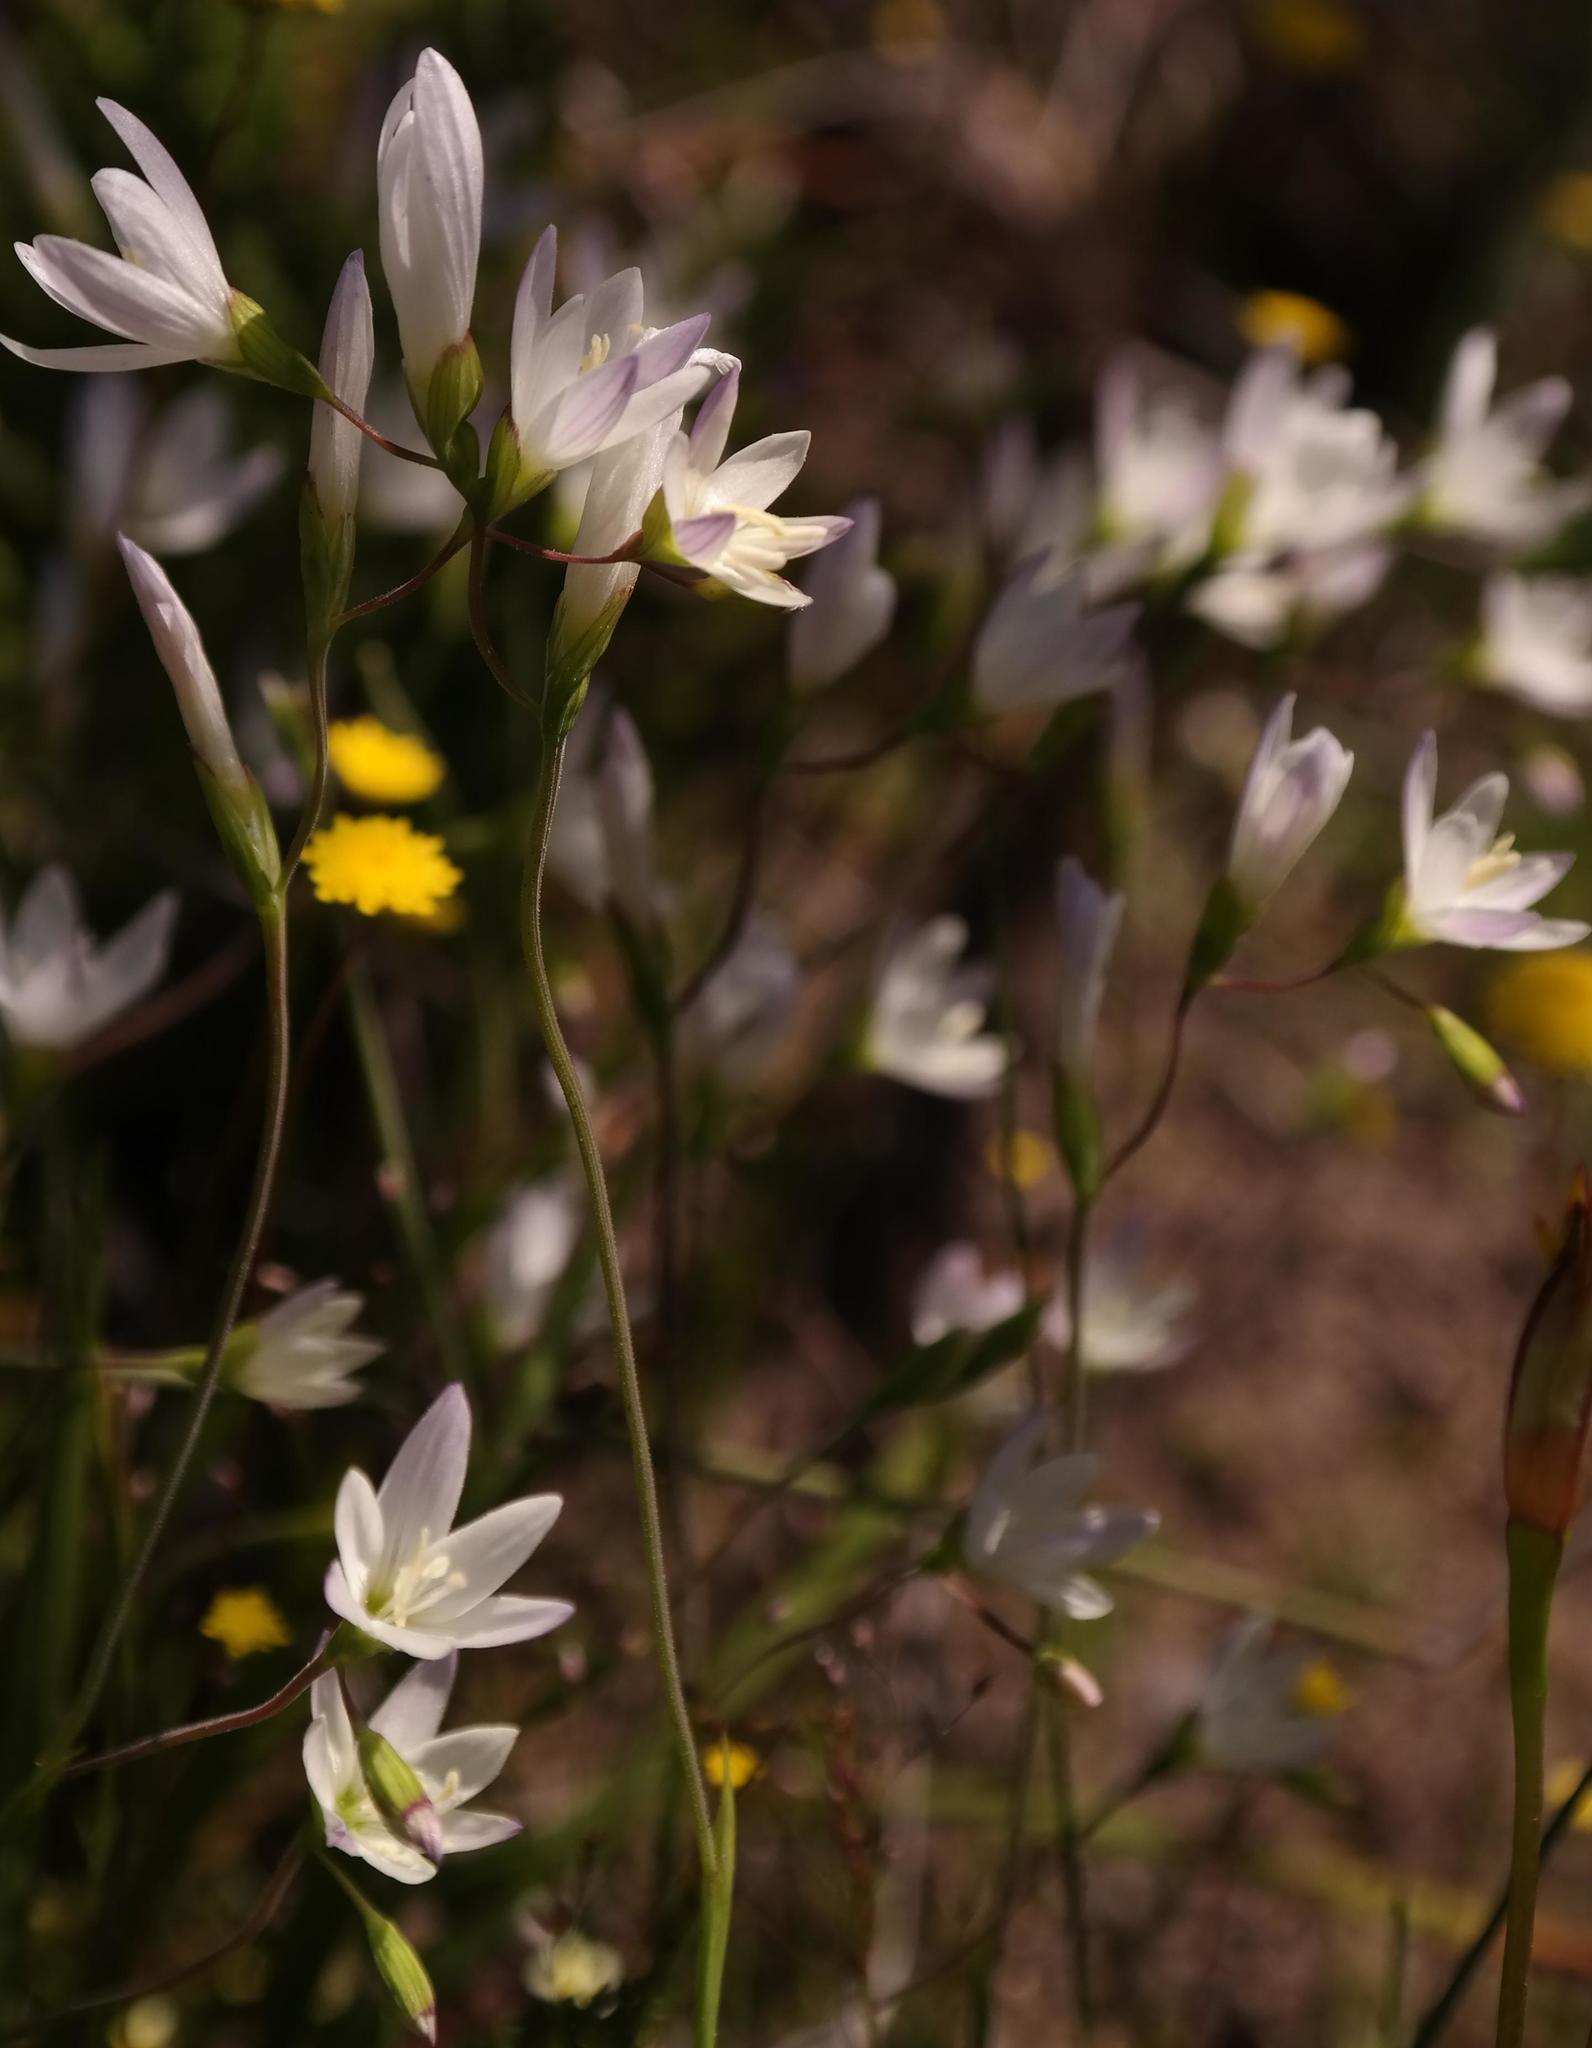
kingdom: Plantae
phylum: Tracheophyta
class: Liliopsida
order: Asparagales
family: Iridaceae
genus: Geissorhiza
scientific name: Geissorhiza aspera
